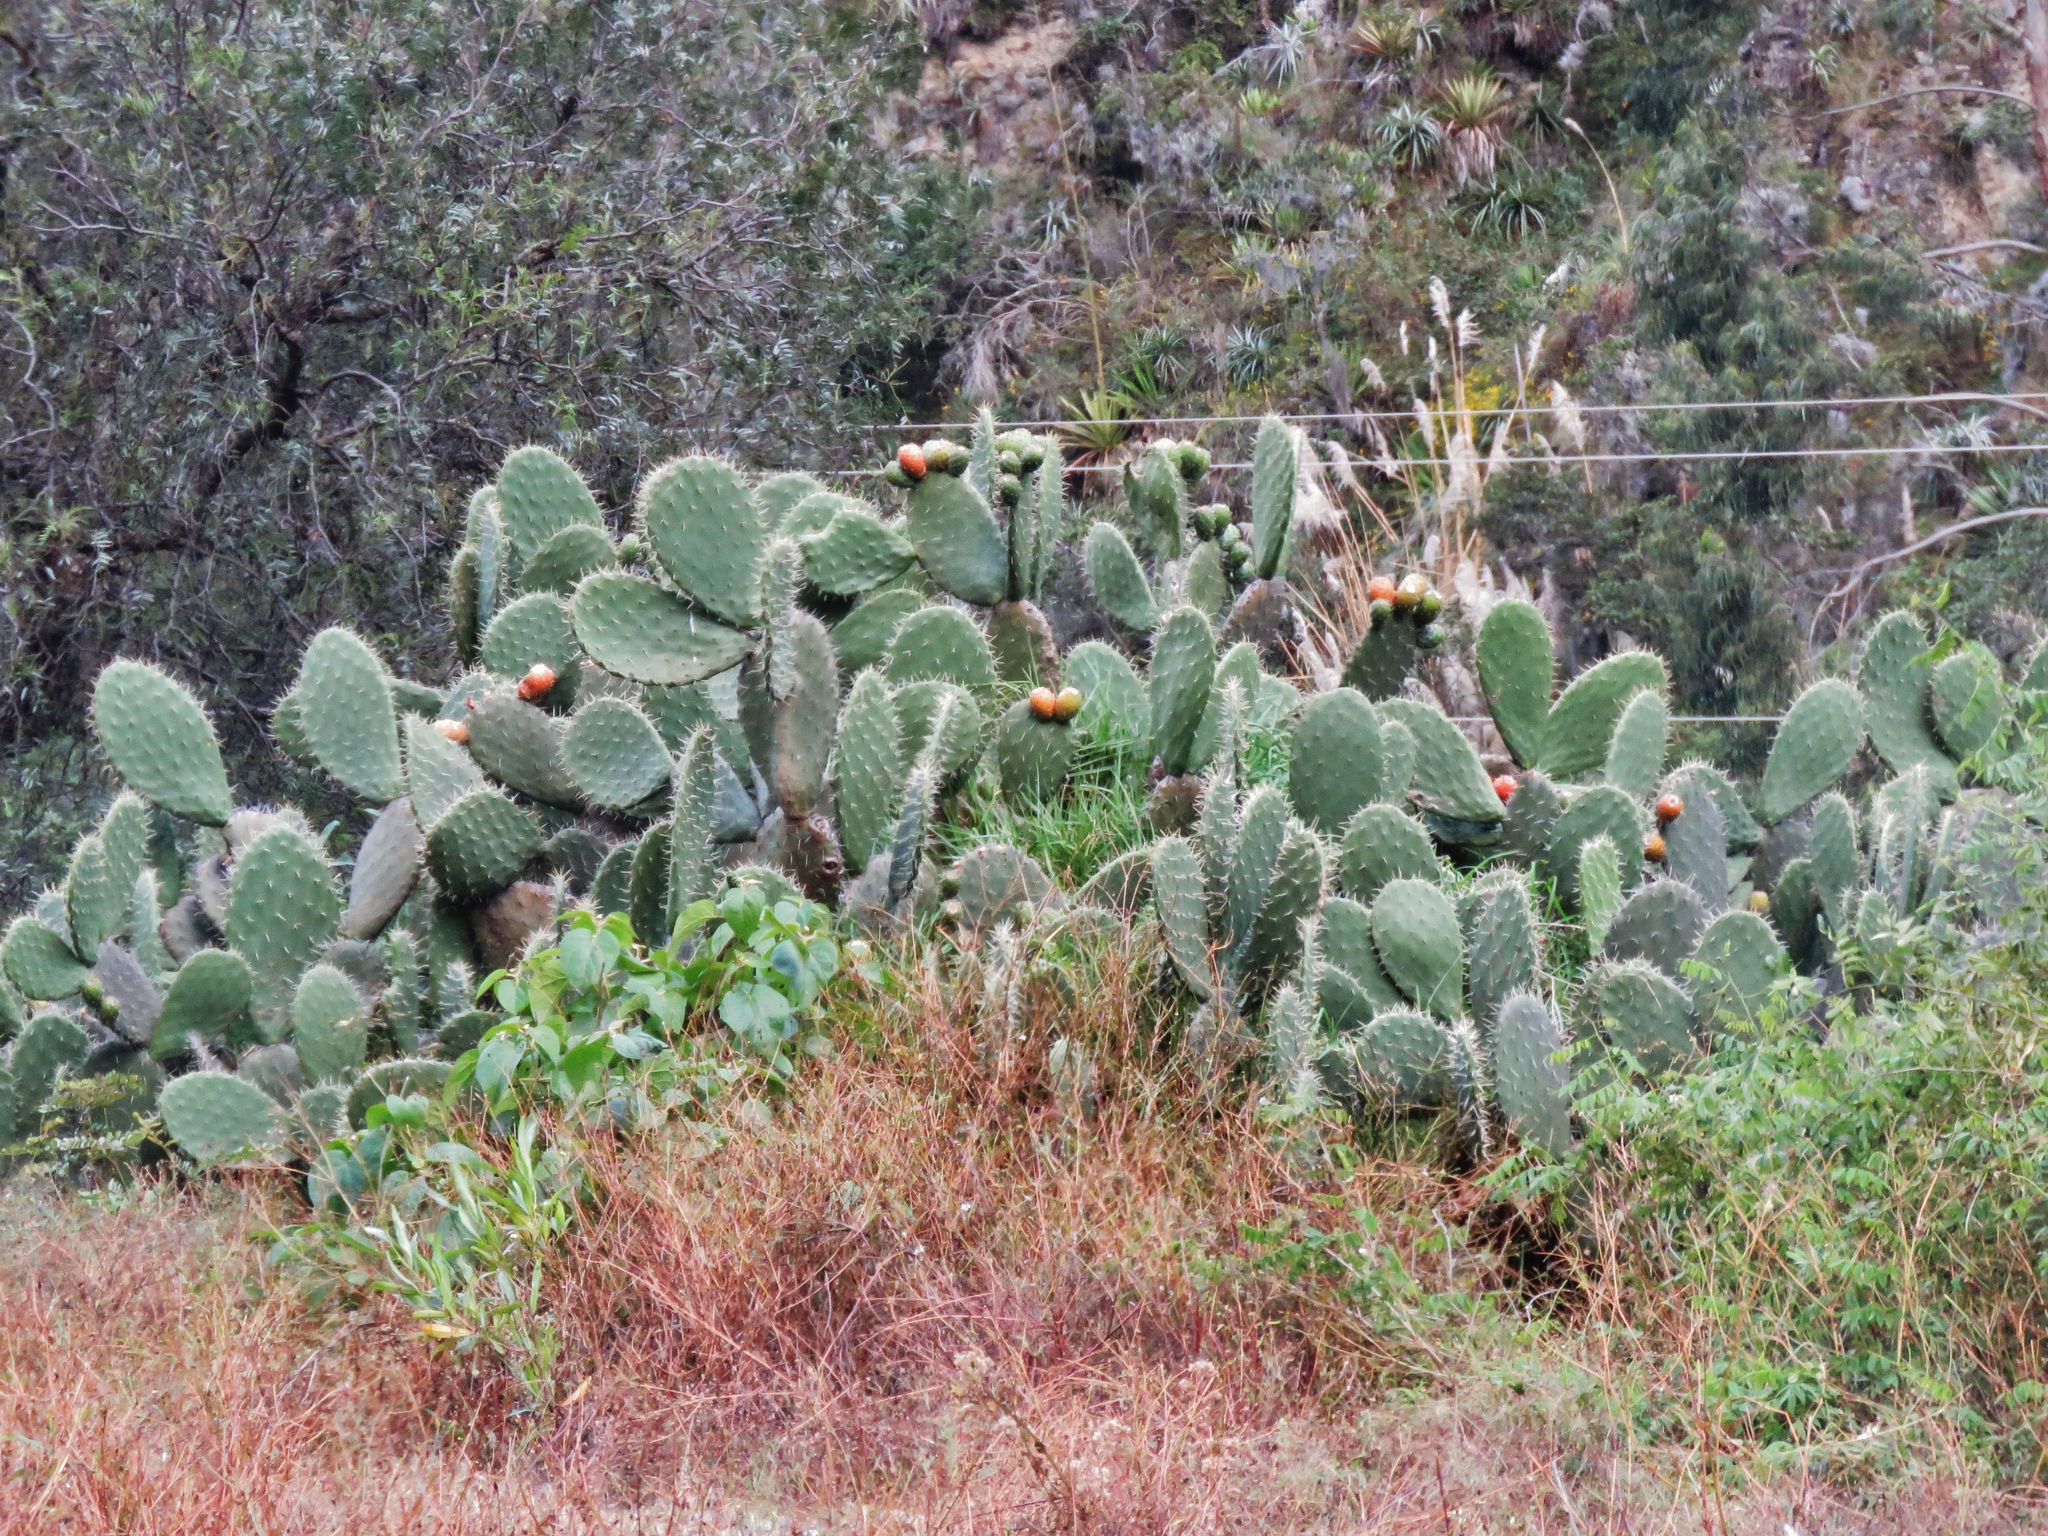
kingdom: Plantae
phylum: Tracheophyta
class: Magnoliopsida
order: Caryophyllales
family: Cactaceae
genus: Opuntia
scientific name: Opuntia ficus-indica
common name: Barbary fig
